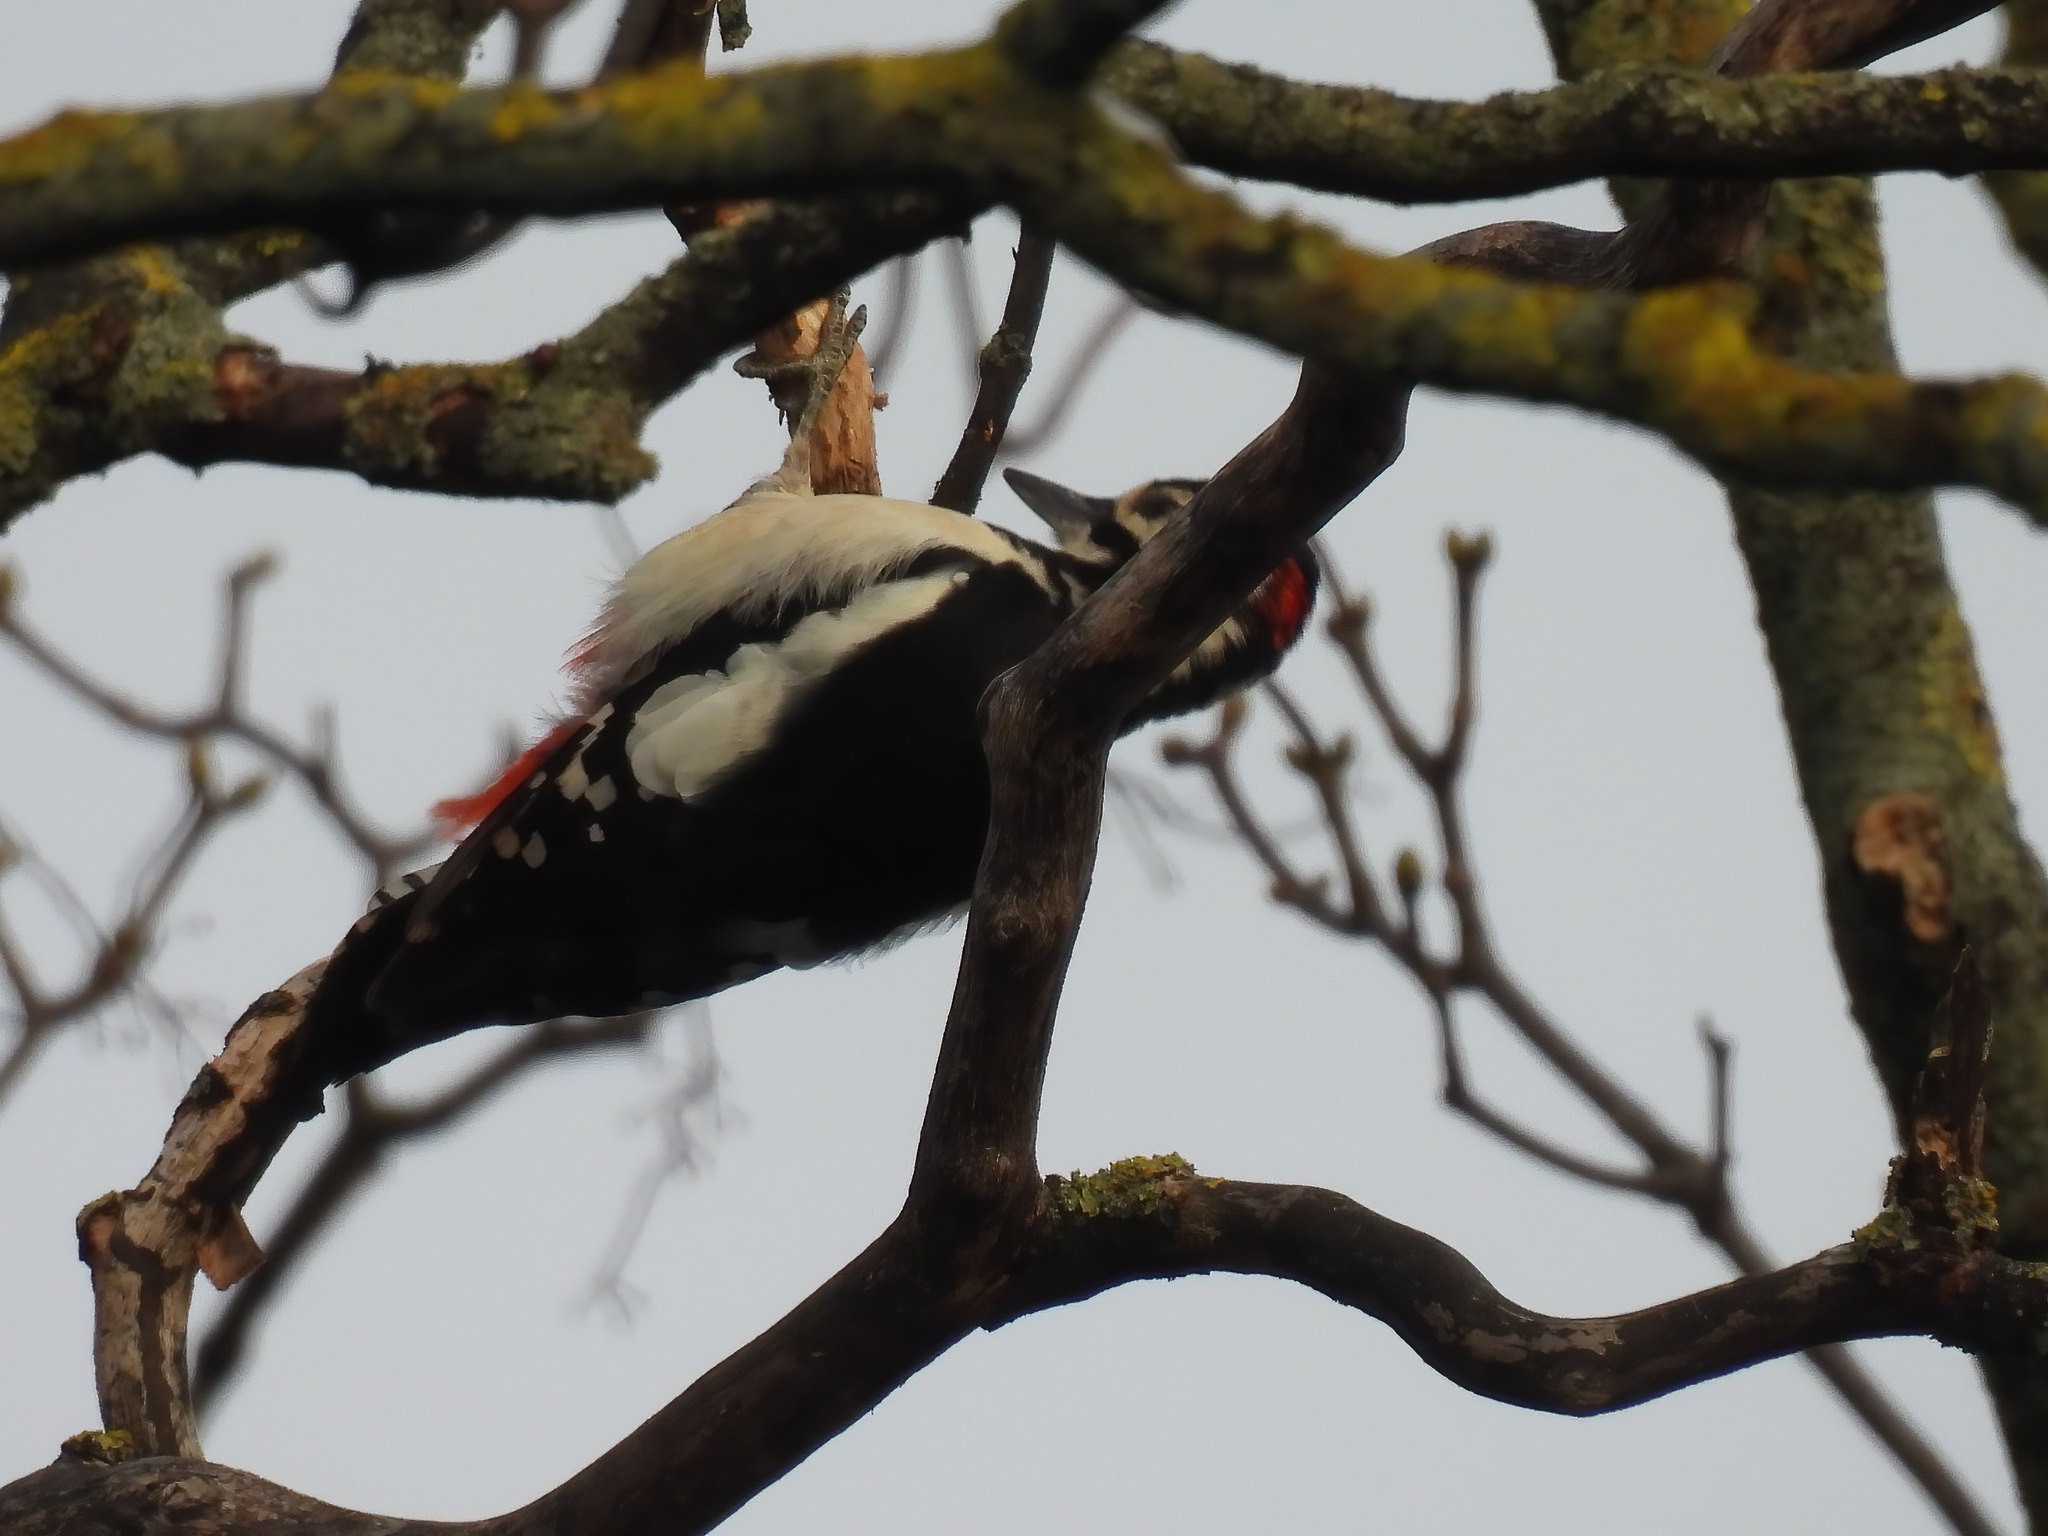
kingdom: Animalia
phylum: Chordata
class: Aves
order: Piciformes
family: Picidae
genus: Dendrocopos
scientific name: Dendrocopos major
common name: Great spotted woodpecker
